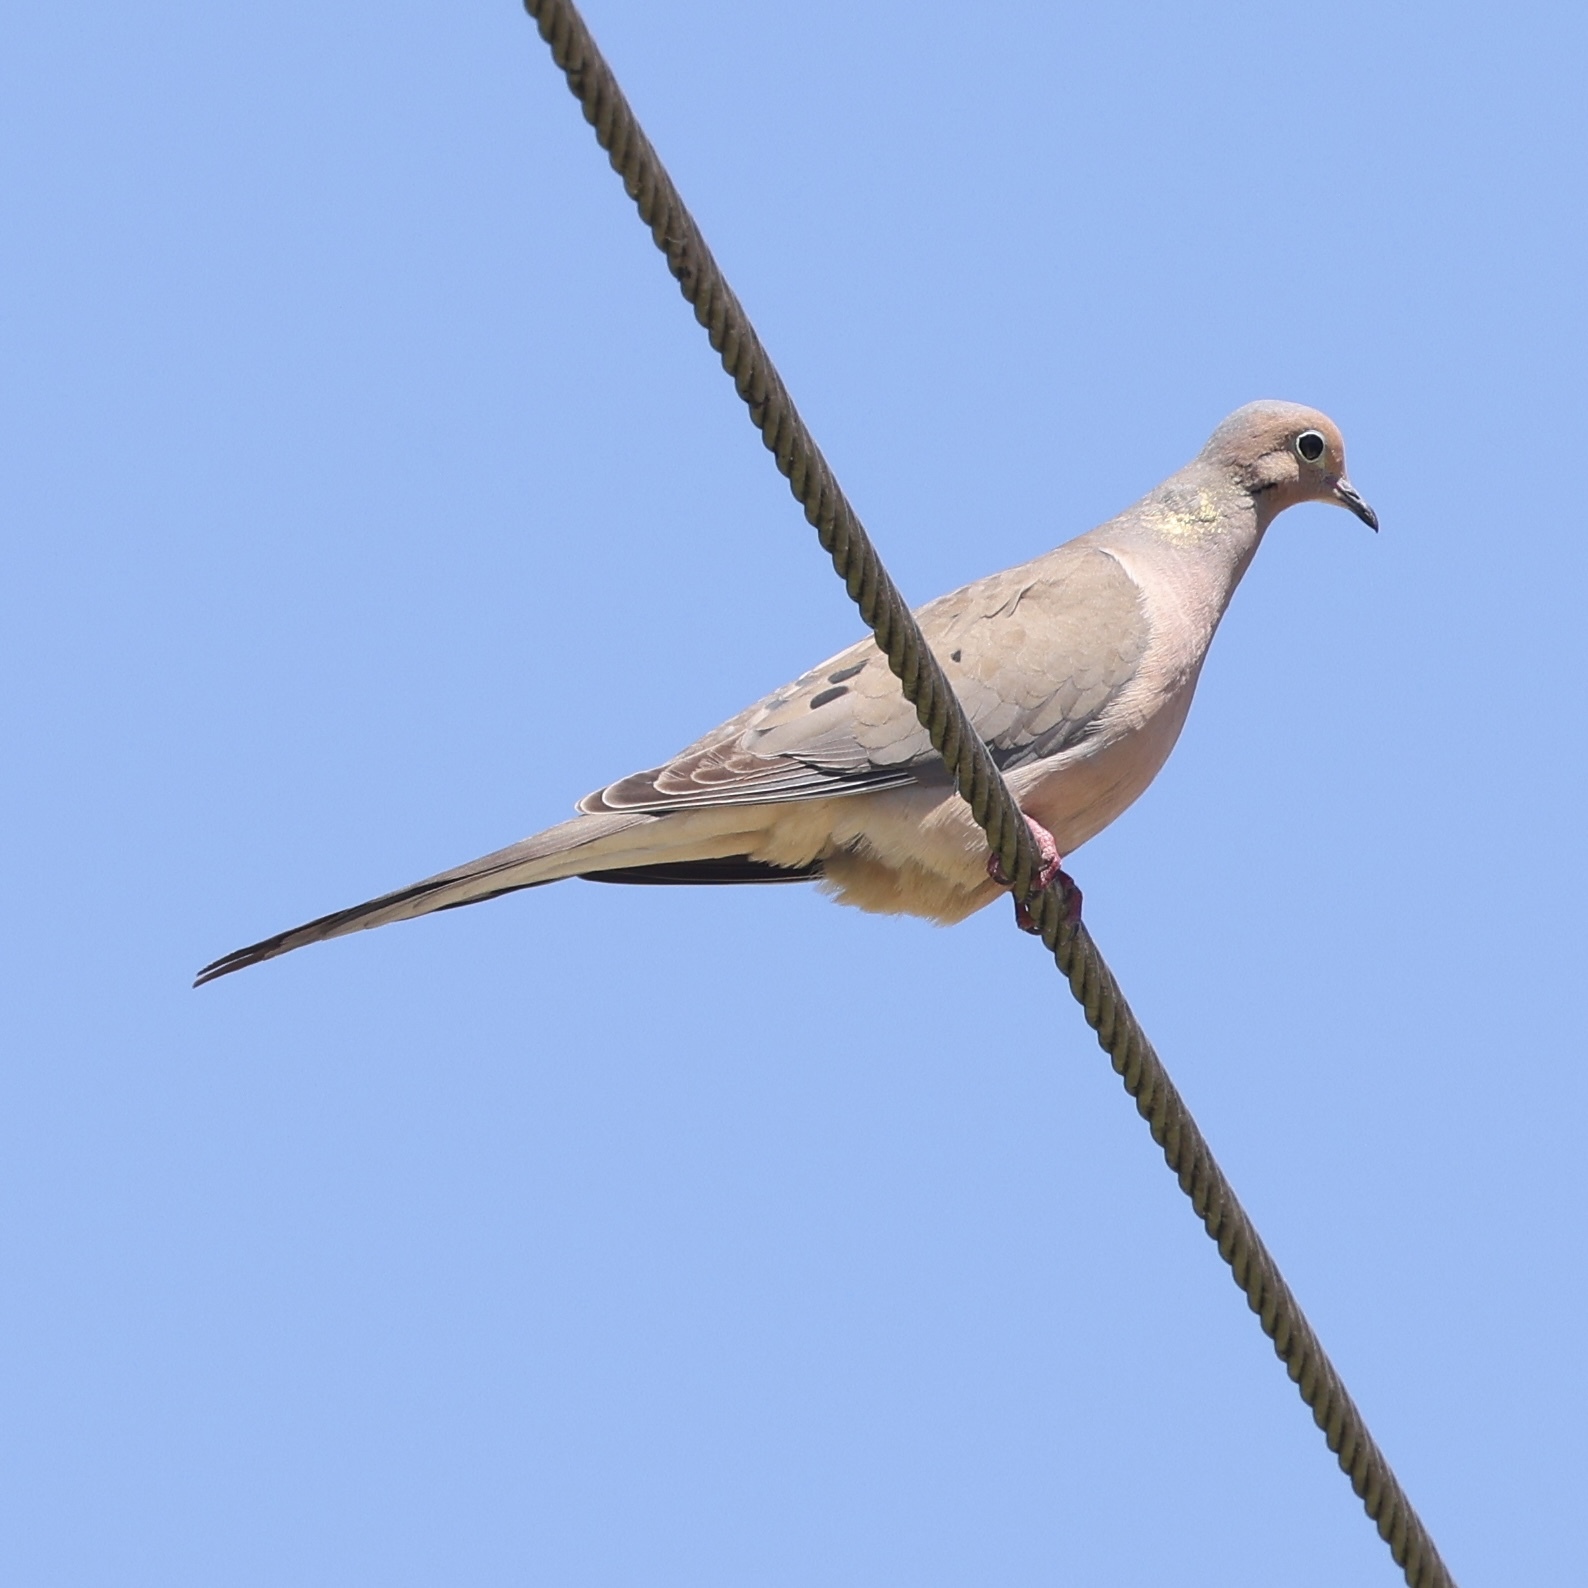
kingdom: Animalia
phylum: Chordata
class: Aves
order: Columbiformes
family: Columbidae
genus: Zenaida
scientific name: Zenaida macroura
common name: Mourning dove
